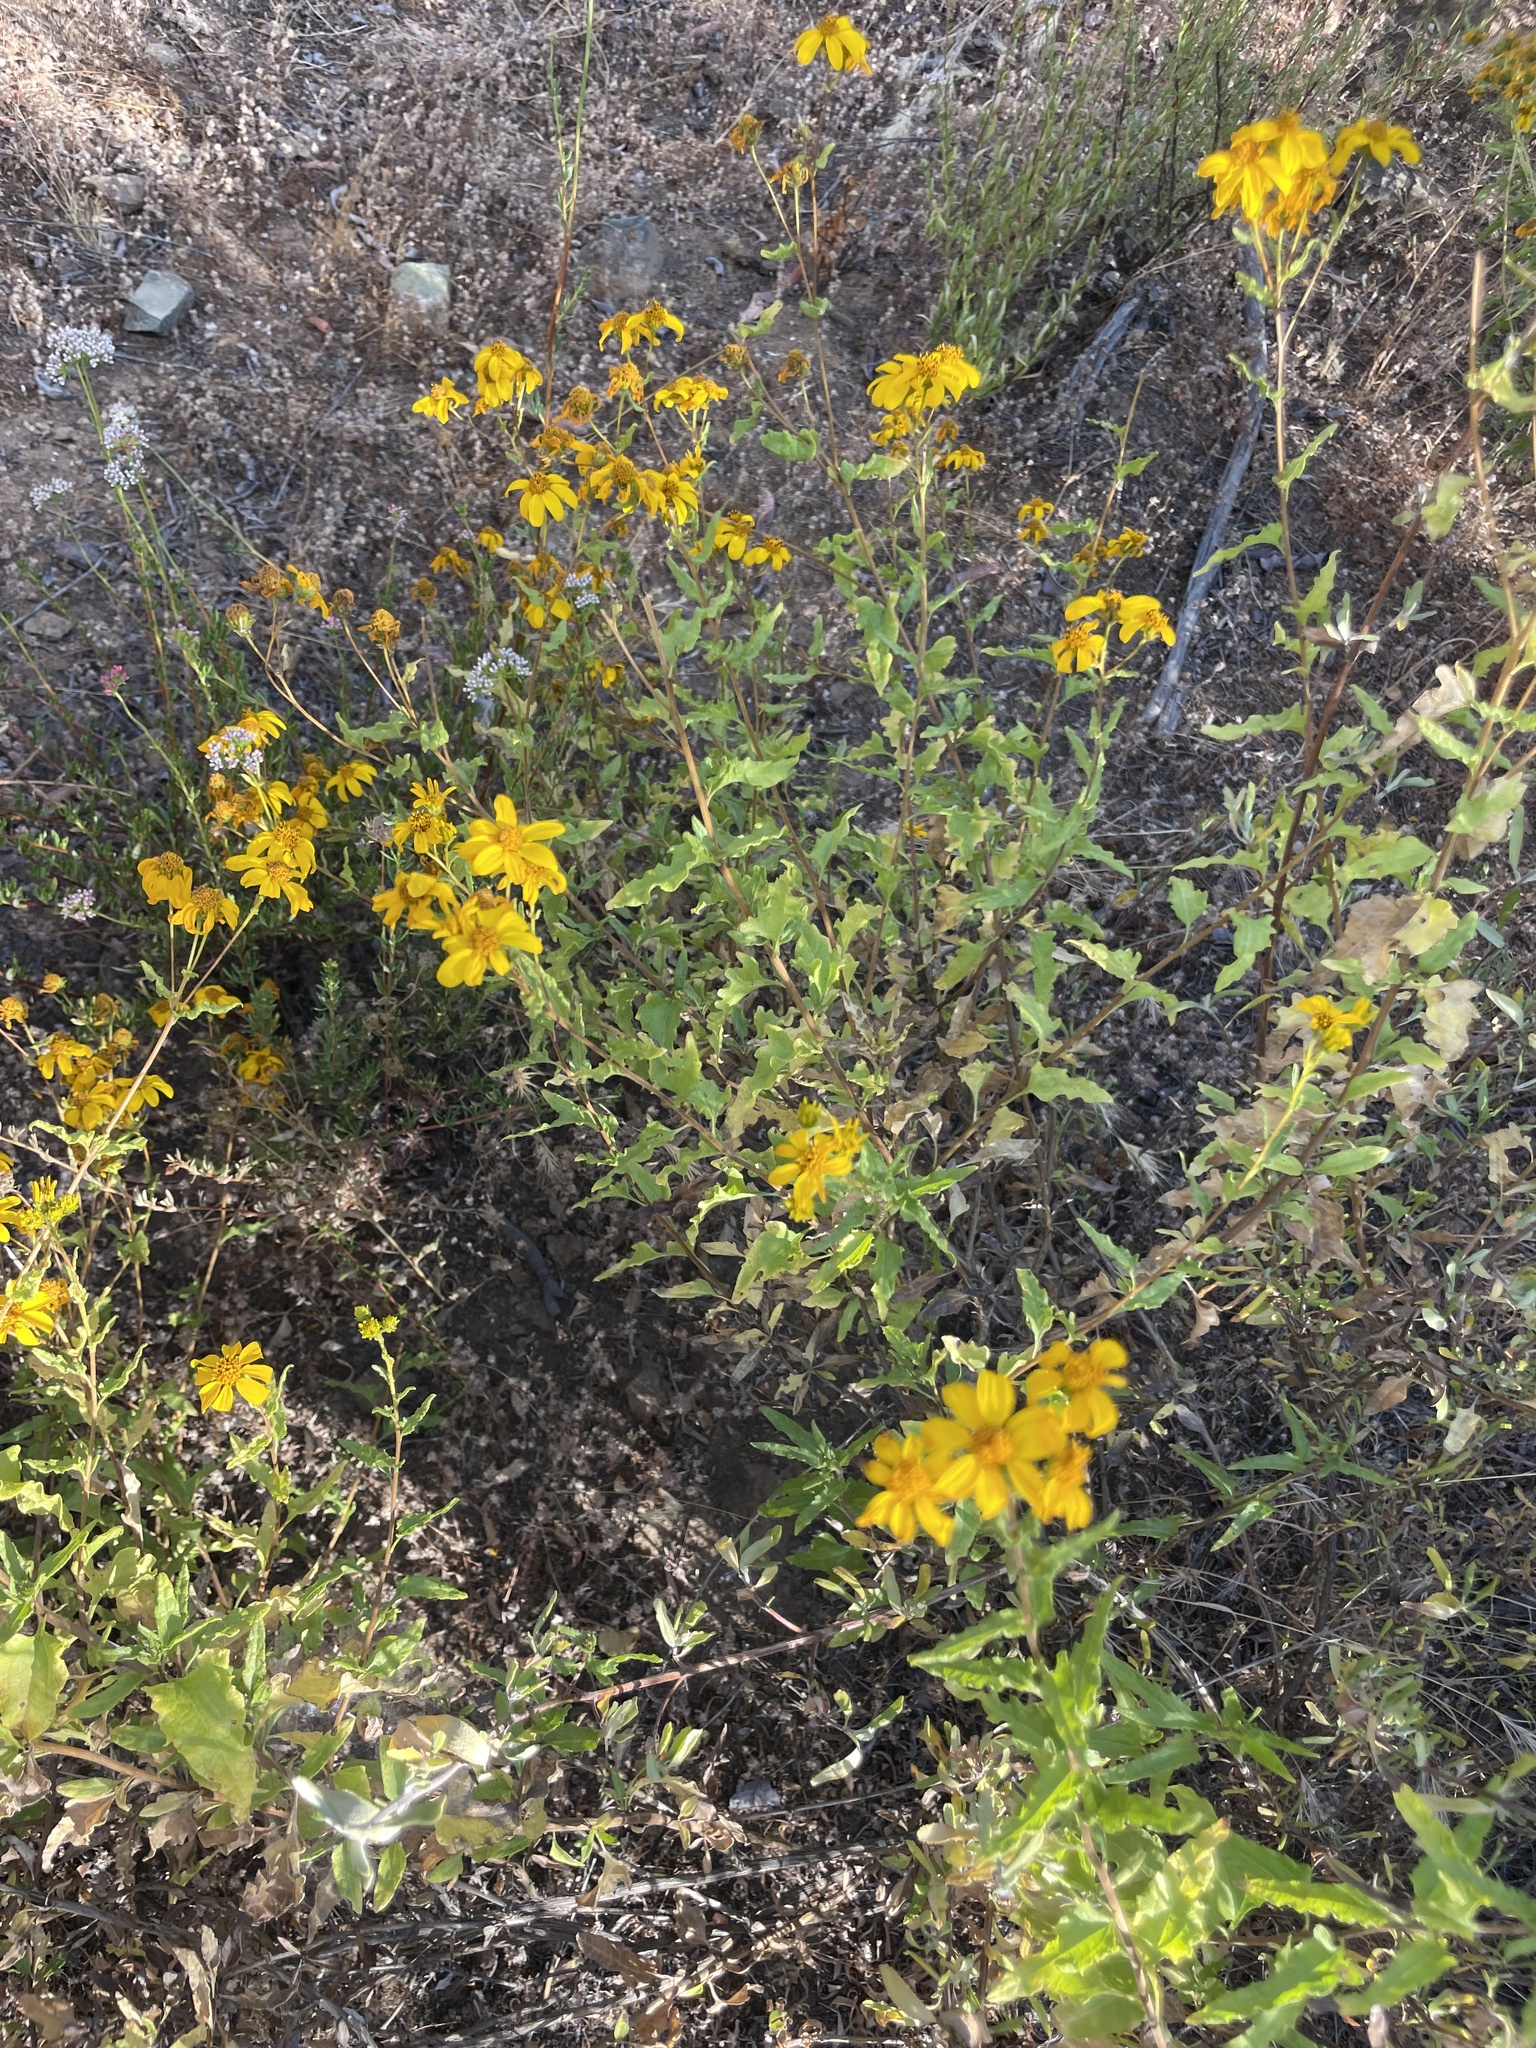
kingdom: Plantae
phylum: Tracheophyta
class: Magnoliopsida
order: Asterales
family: Asteraceae
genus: Bahiopsis
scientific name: Bahiopsis laciniata
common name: San diego county viguiera
